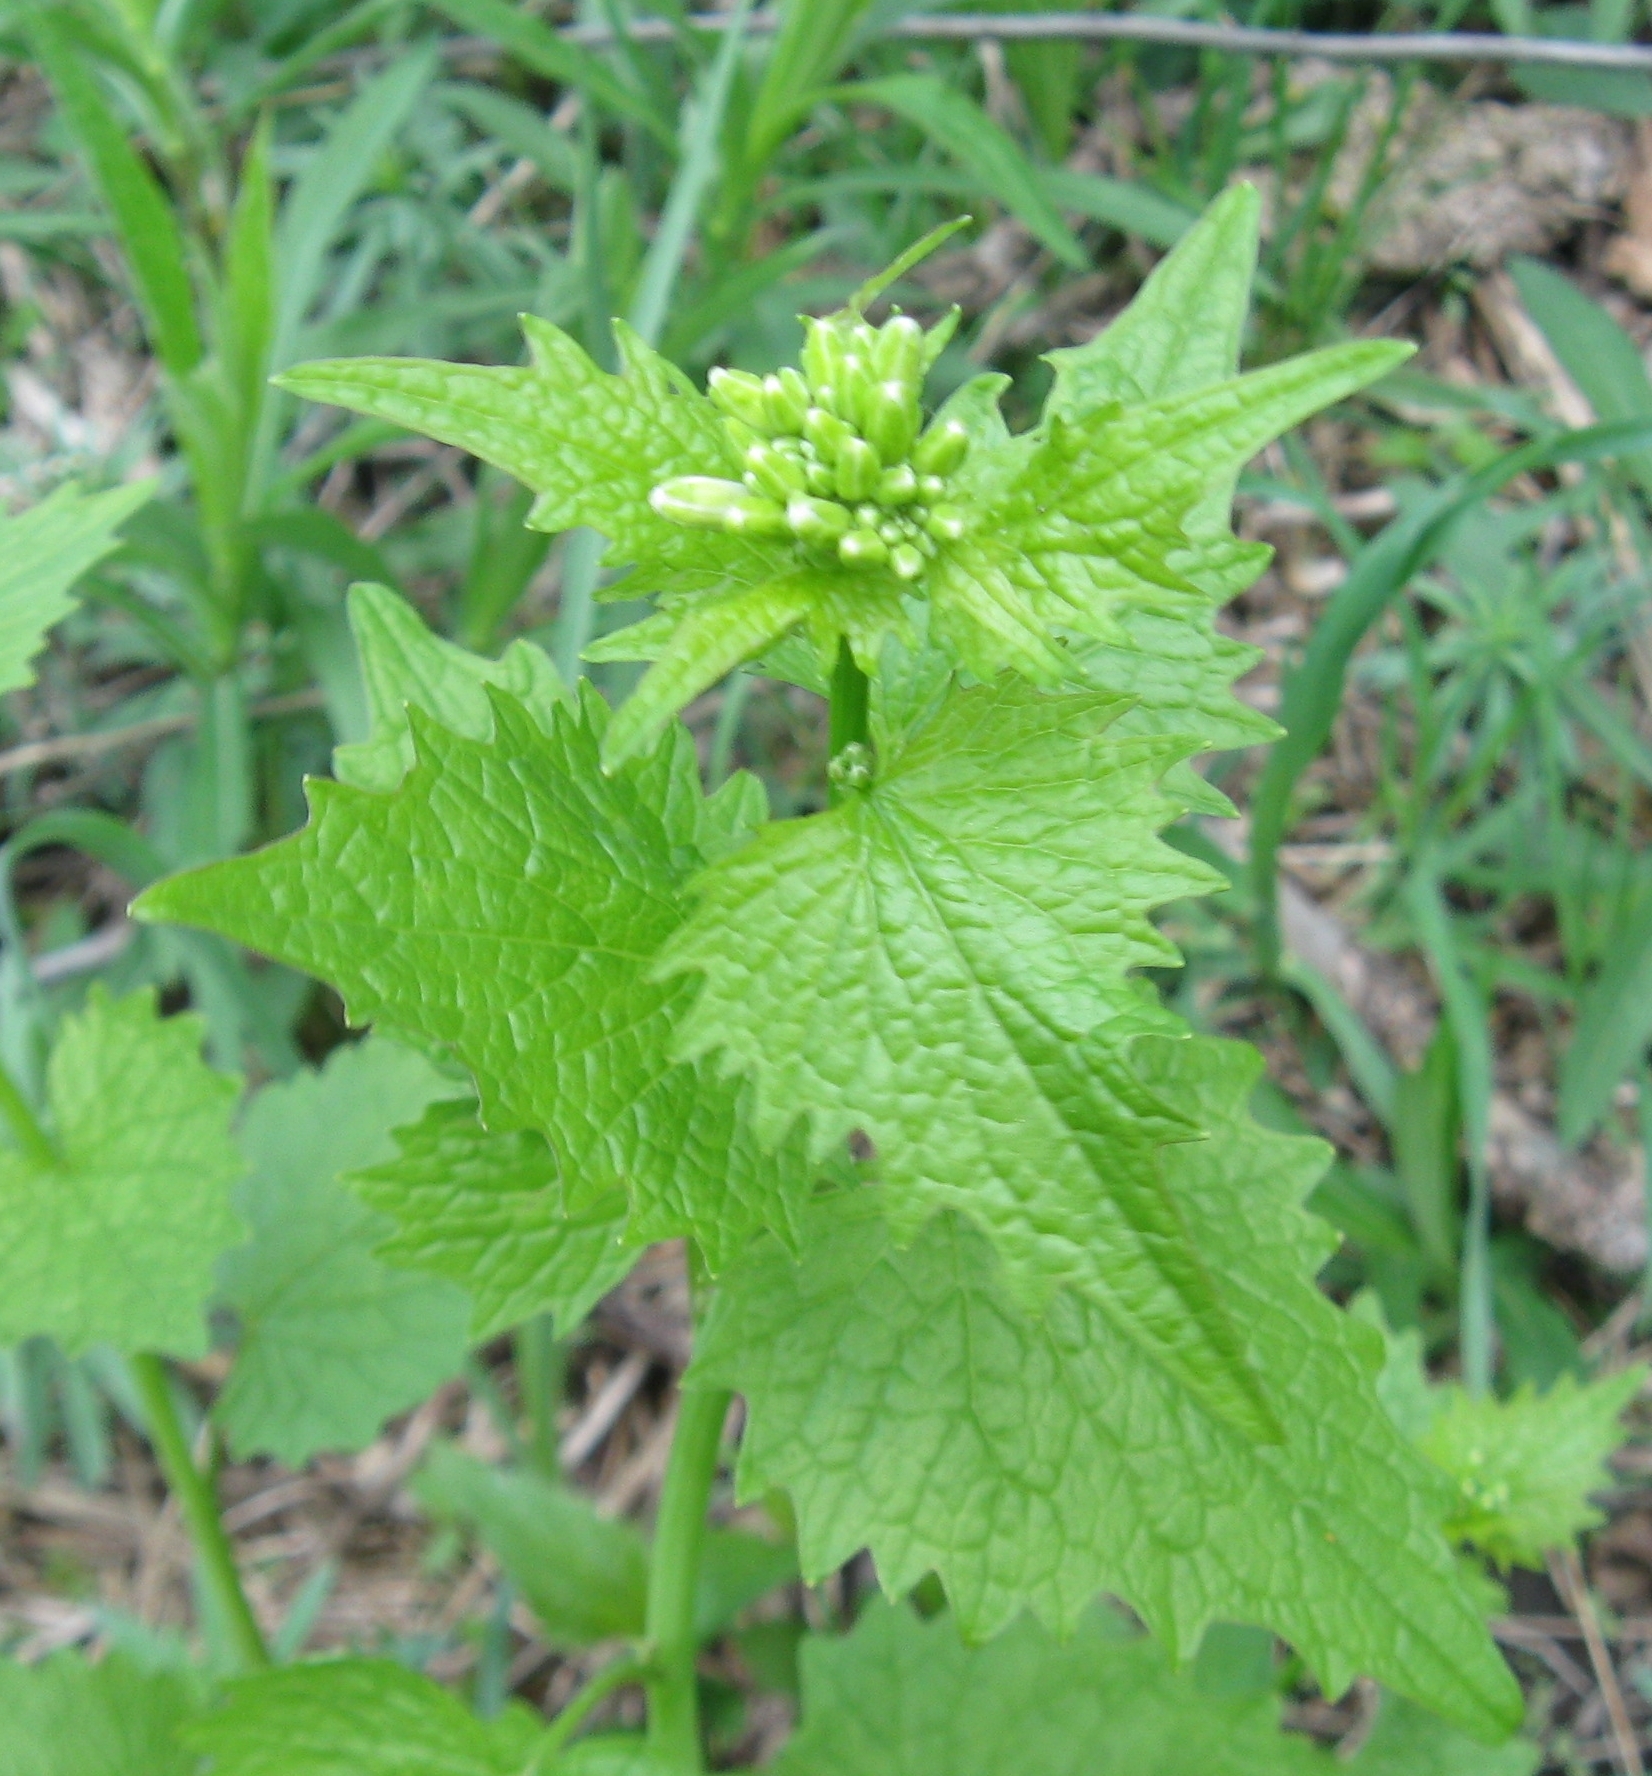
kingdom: Plantae
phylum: Tracheophyta
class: Magnoliopsida
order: Brassicales
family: Brassicaceae
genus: Alliaria
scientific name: Alliaria petiolata
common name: Garlic mustard
